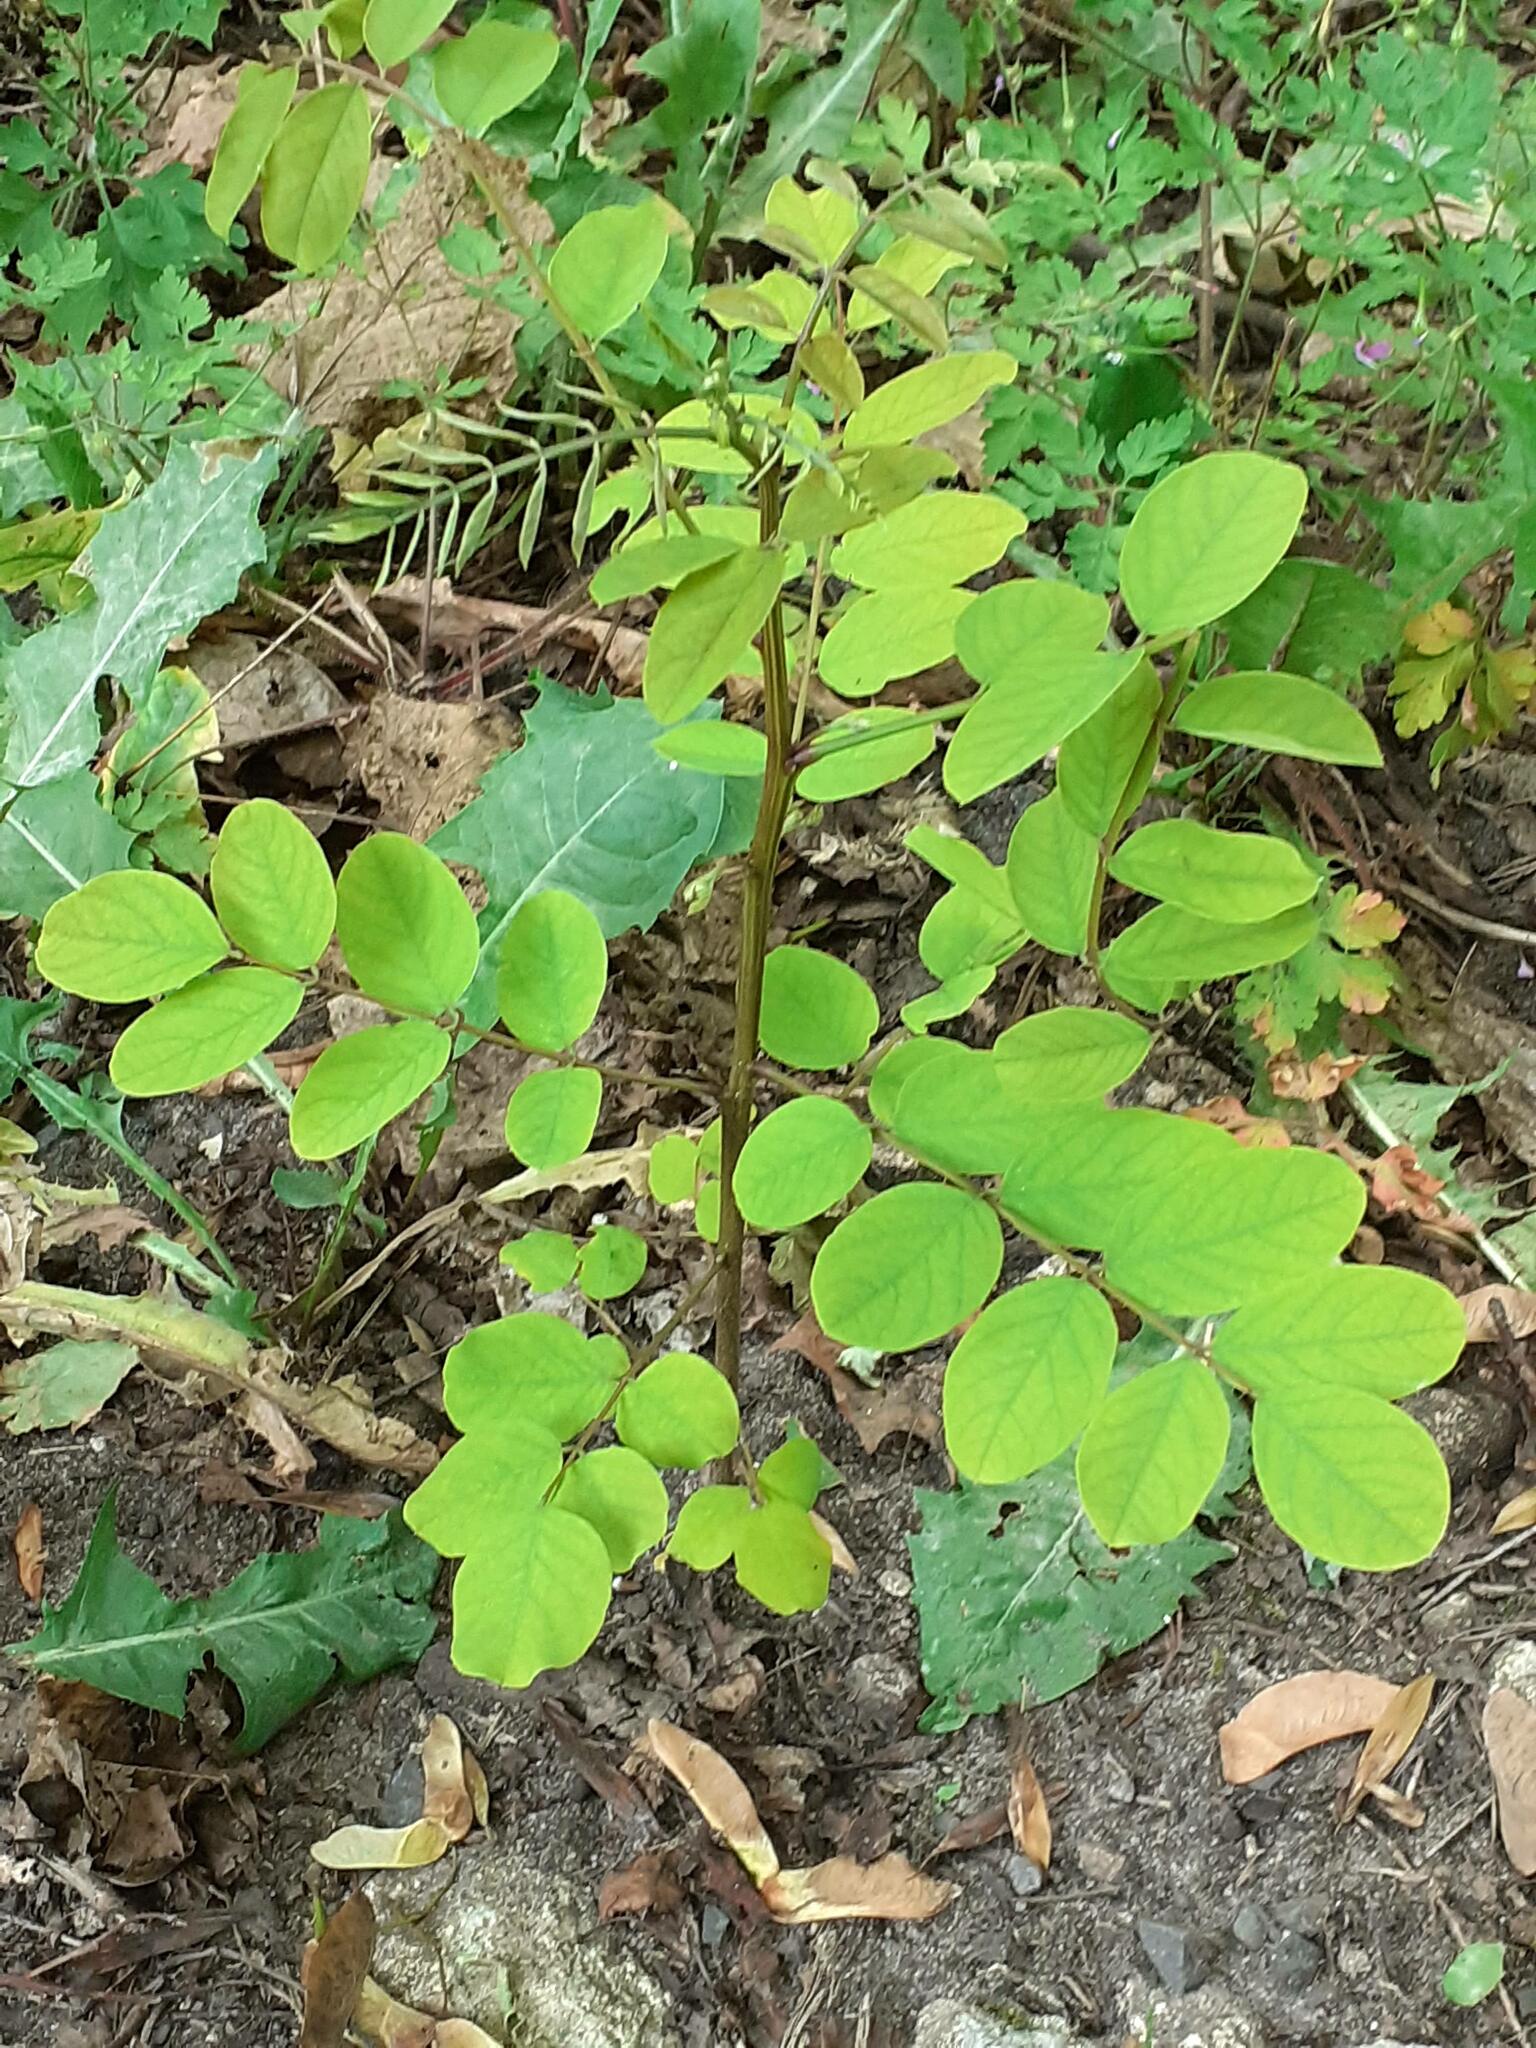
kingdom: Plantae
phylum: Tracheophyta
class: Magnoliopsida
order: Fabales
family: Fabaceae
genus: Robinia
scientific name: Robinia pseudoacacia
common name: Black locust
